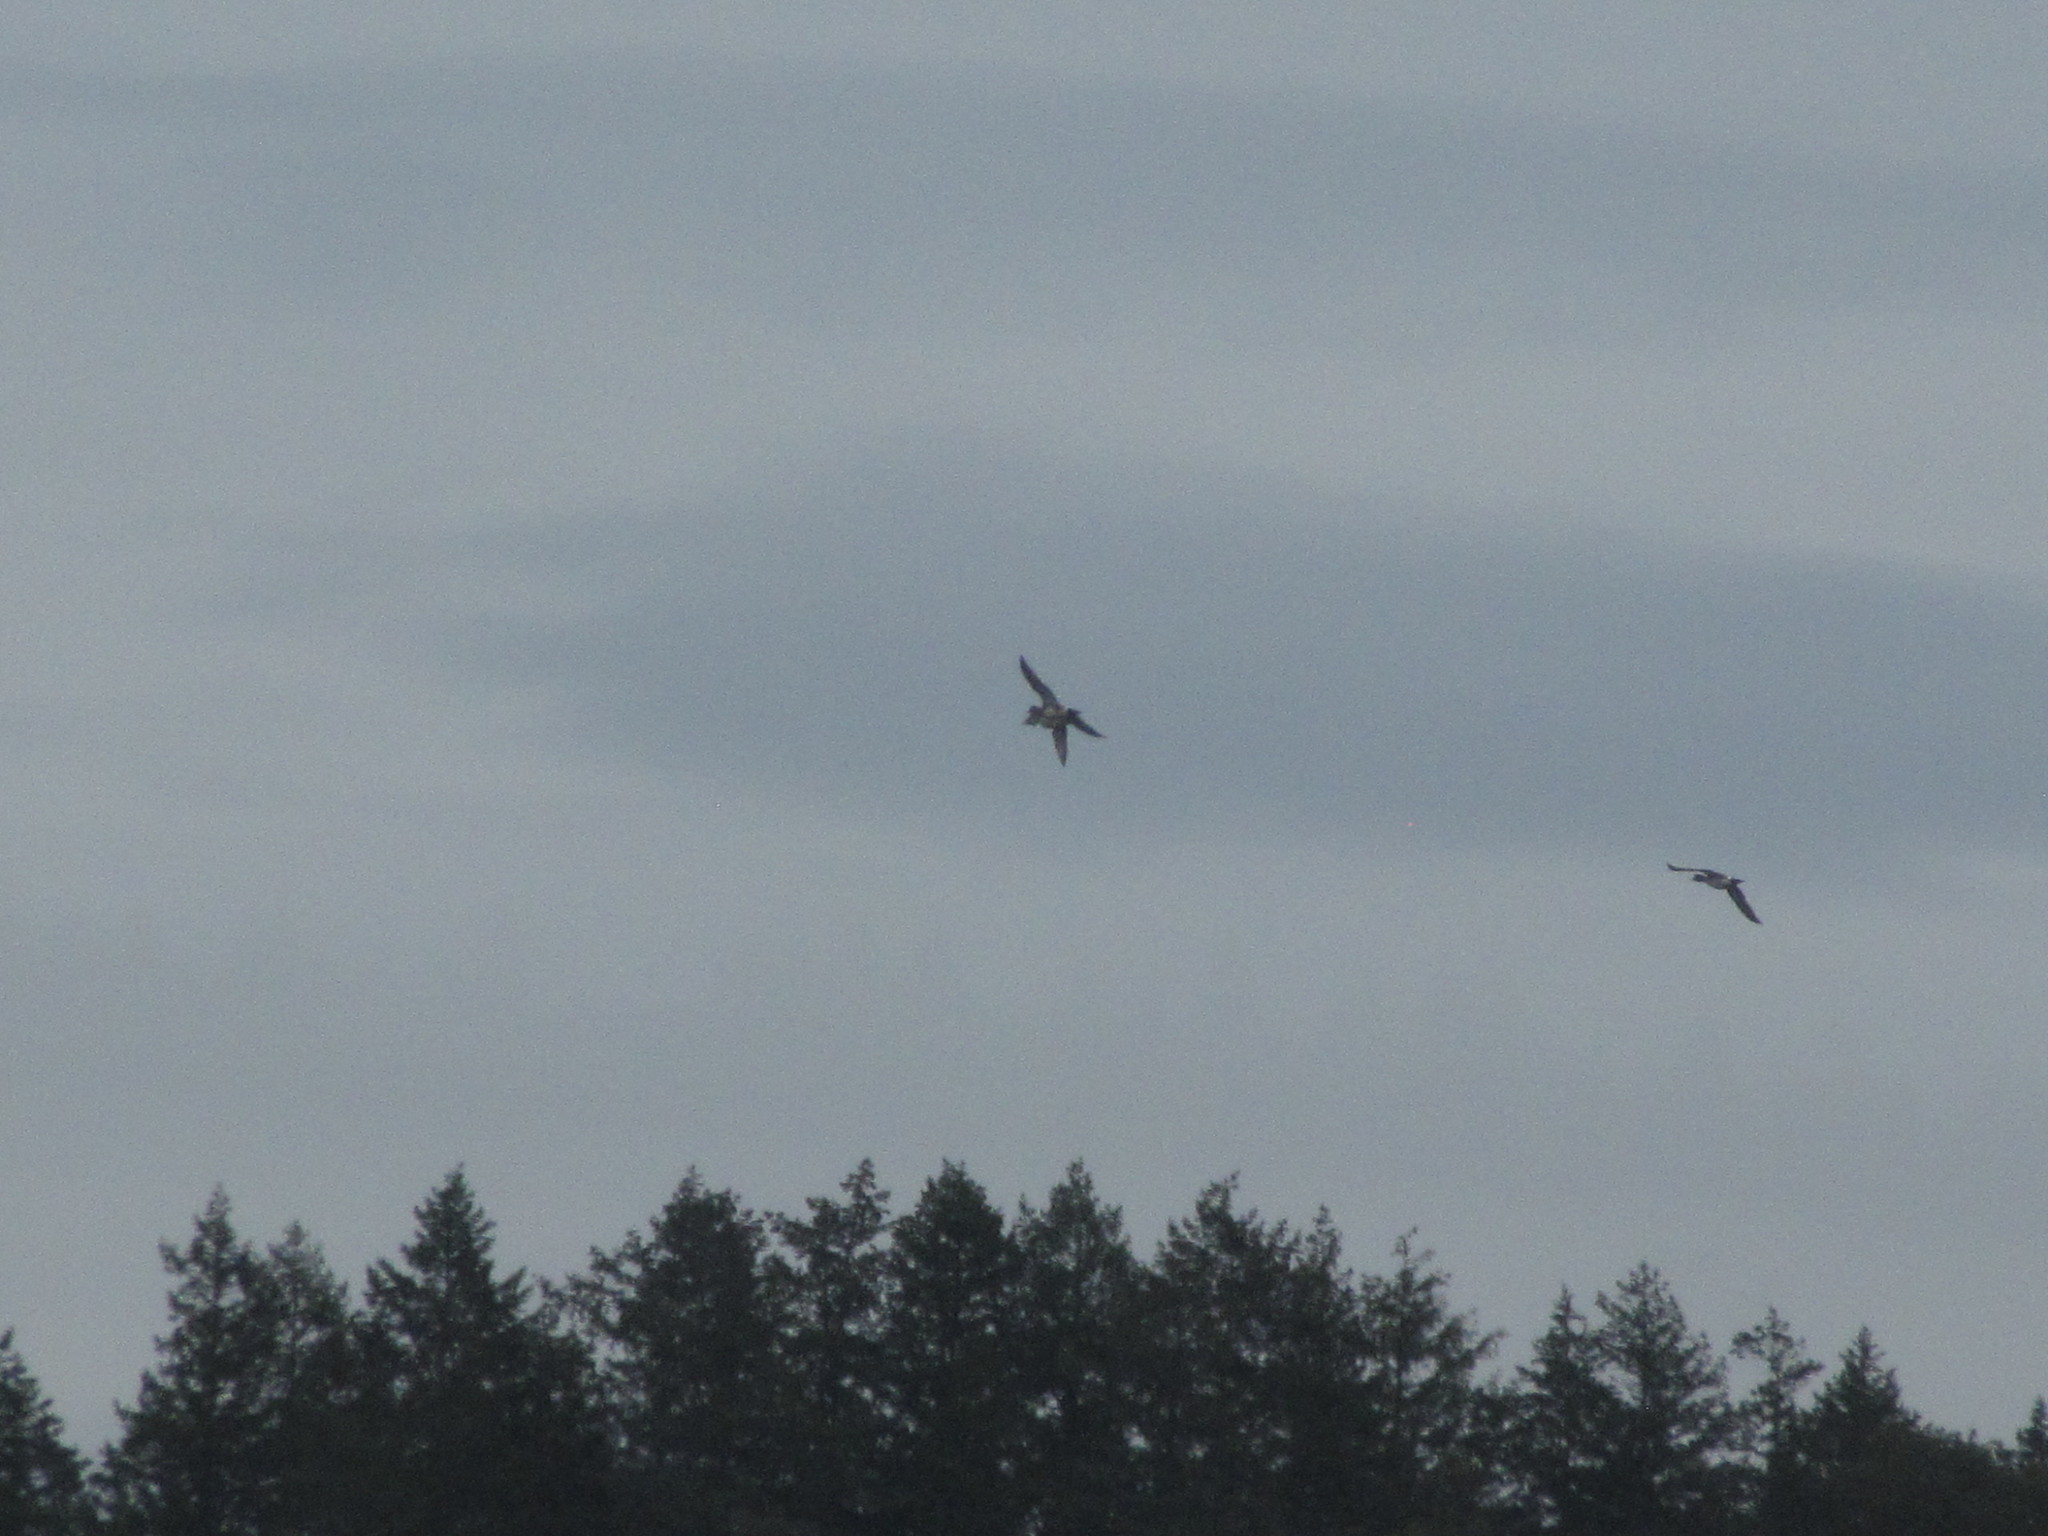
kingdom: Animalia
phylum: Chordata
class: Aves
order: Anseriformes
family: Anatidae
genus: Mareca
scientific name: Mareca americana
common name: American wigeon
